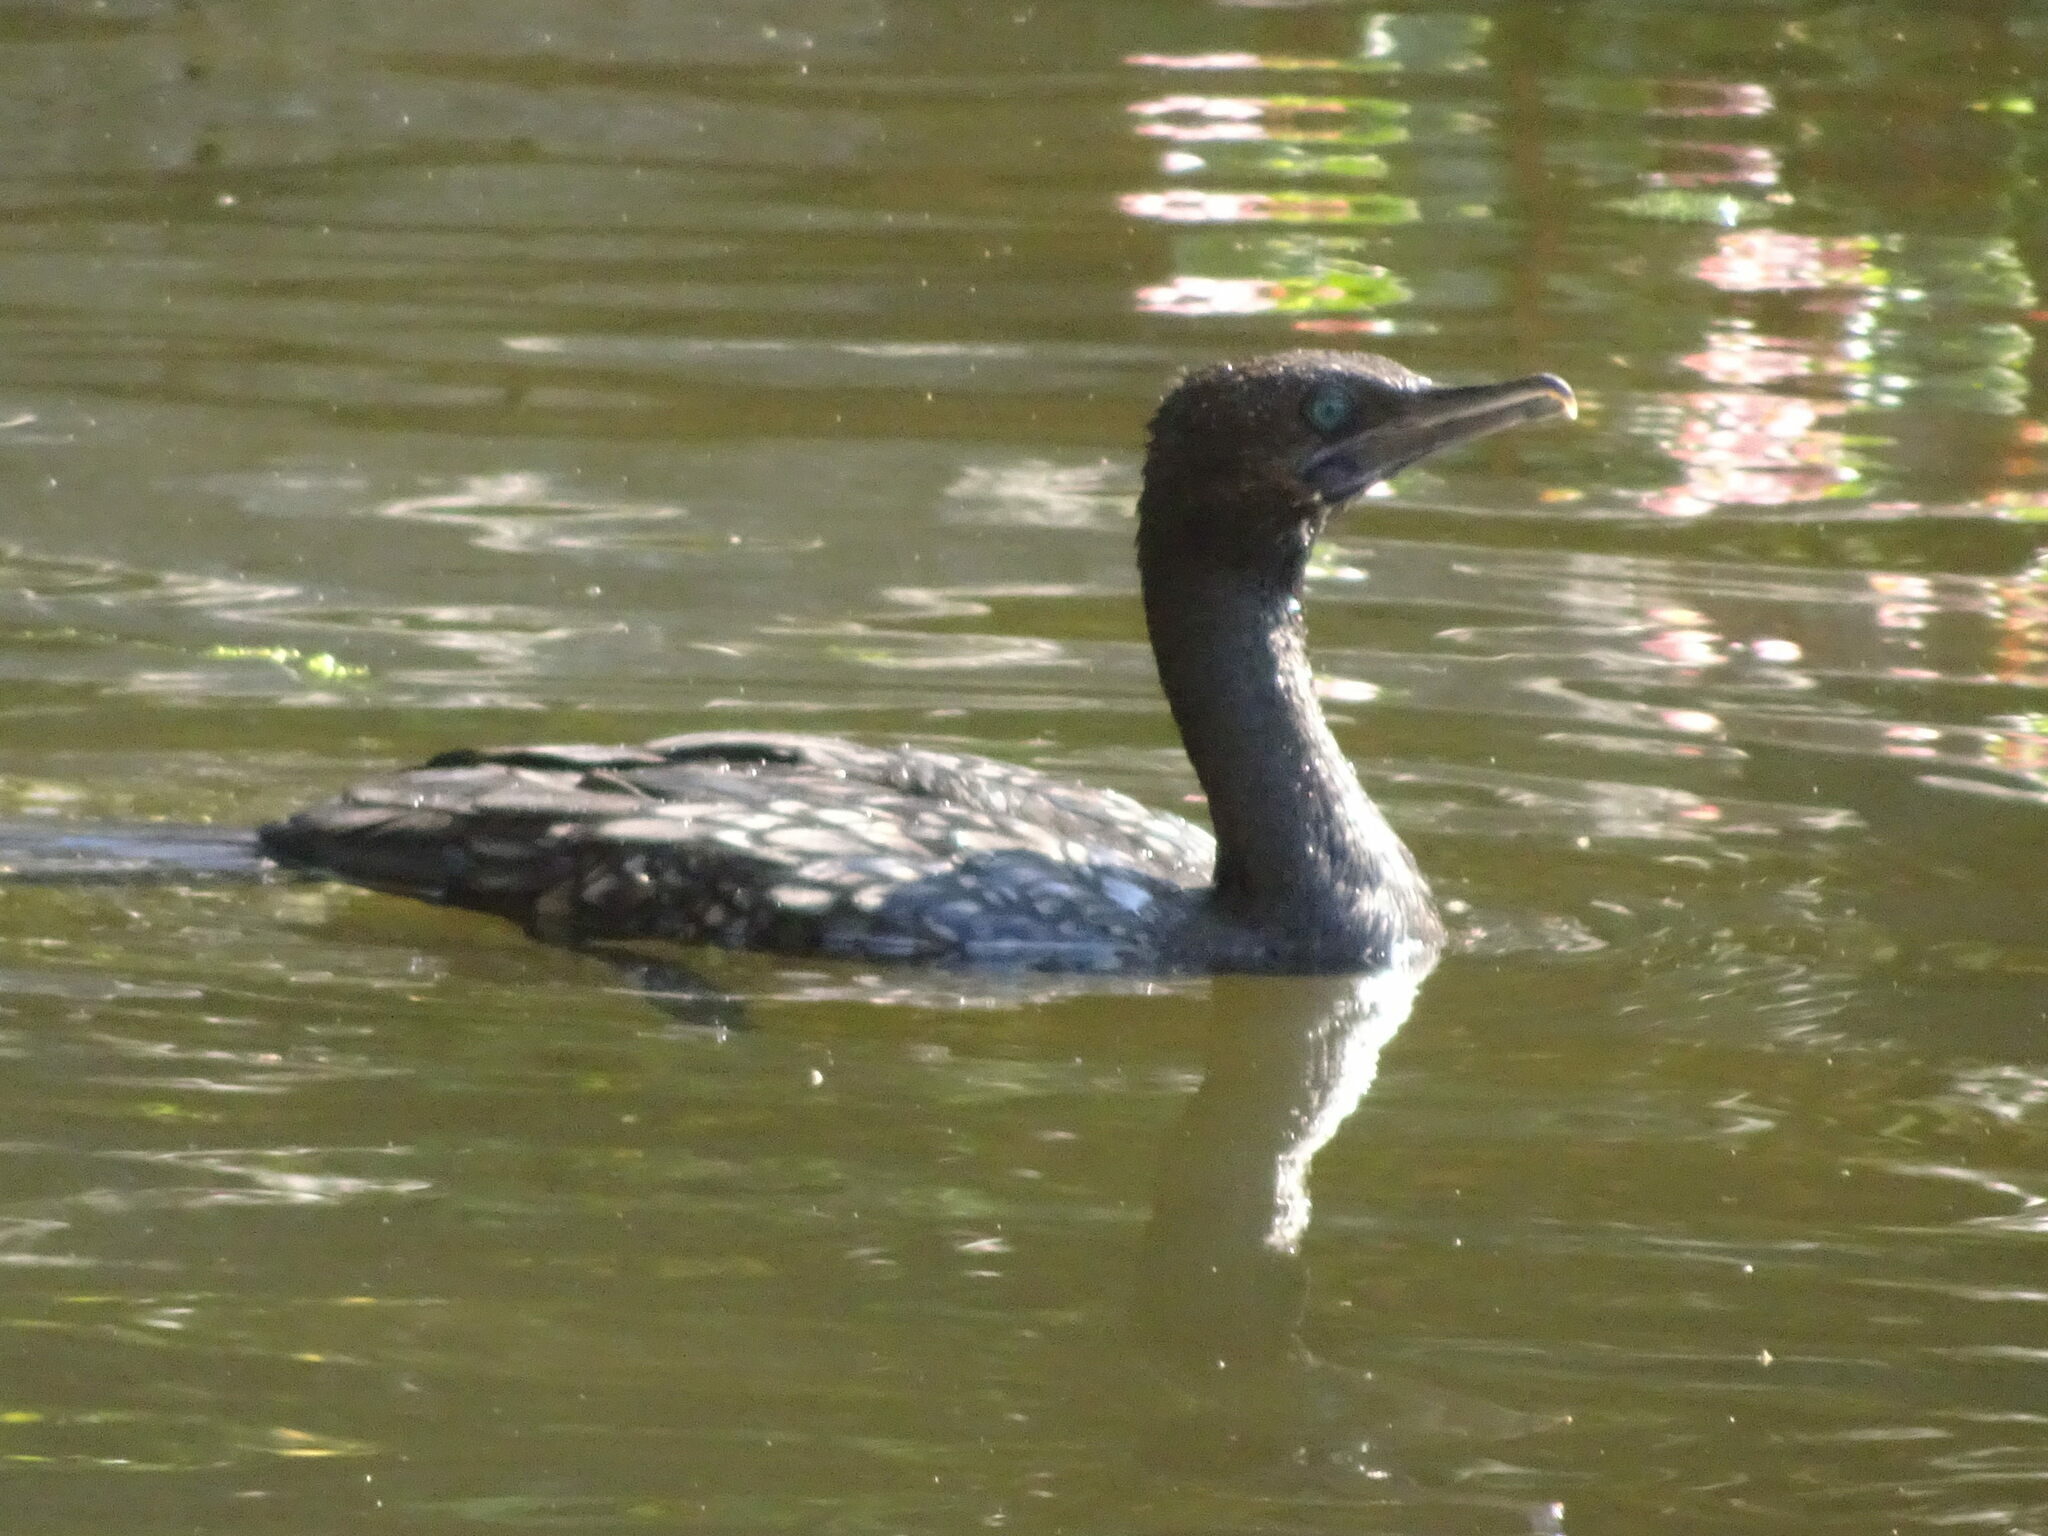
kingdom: Animalia
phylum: Chordata
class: Aves
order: Suliformes
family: Phalacrocoracidae
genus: Phalacrocorax
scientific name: Phalacrocorax sulcirostris
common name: Little black cormorant
